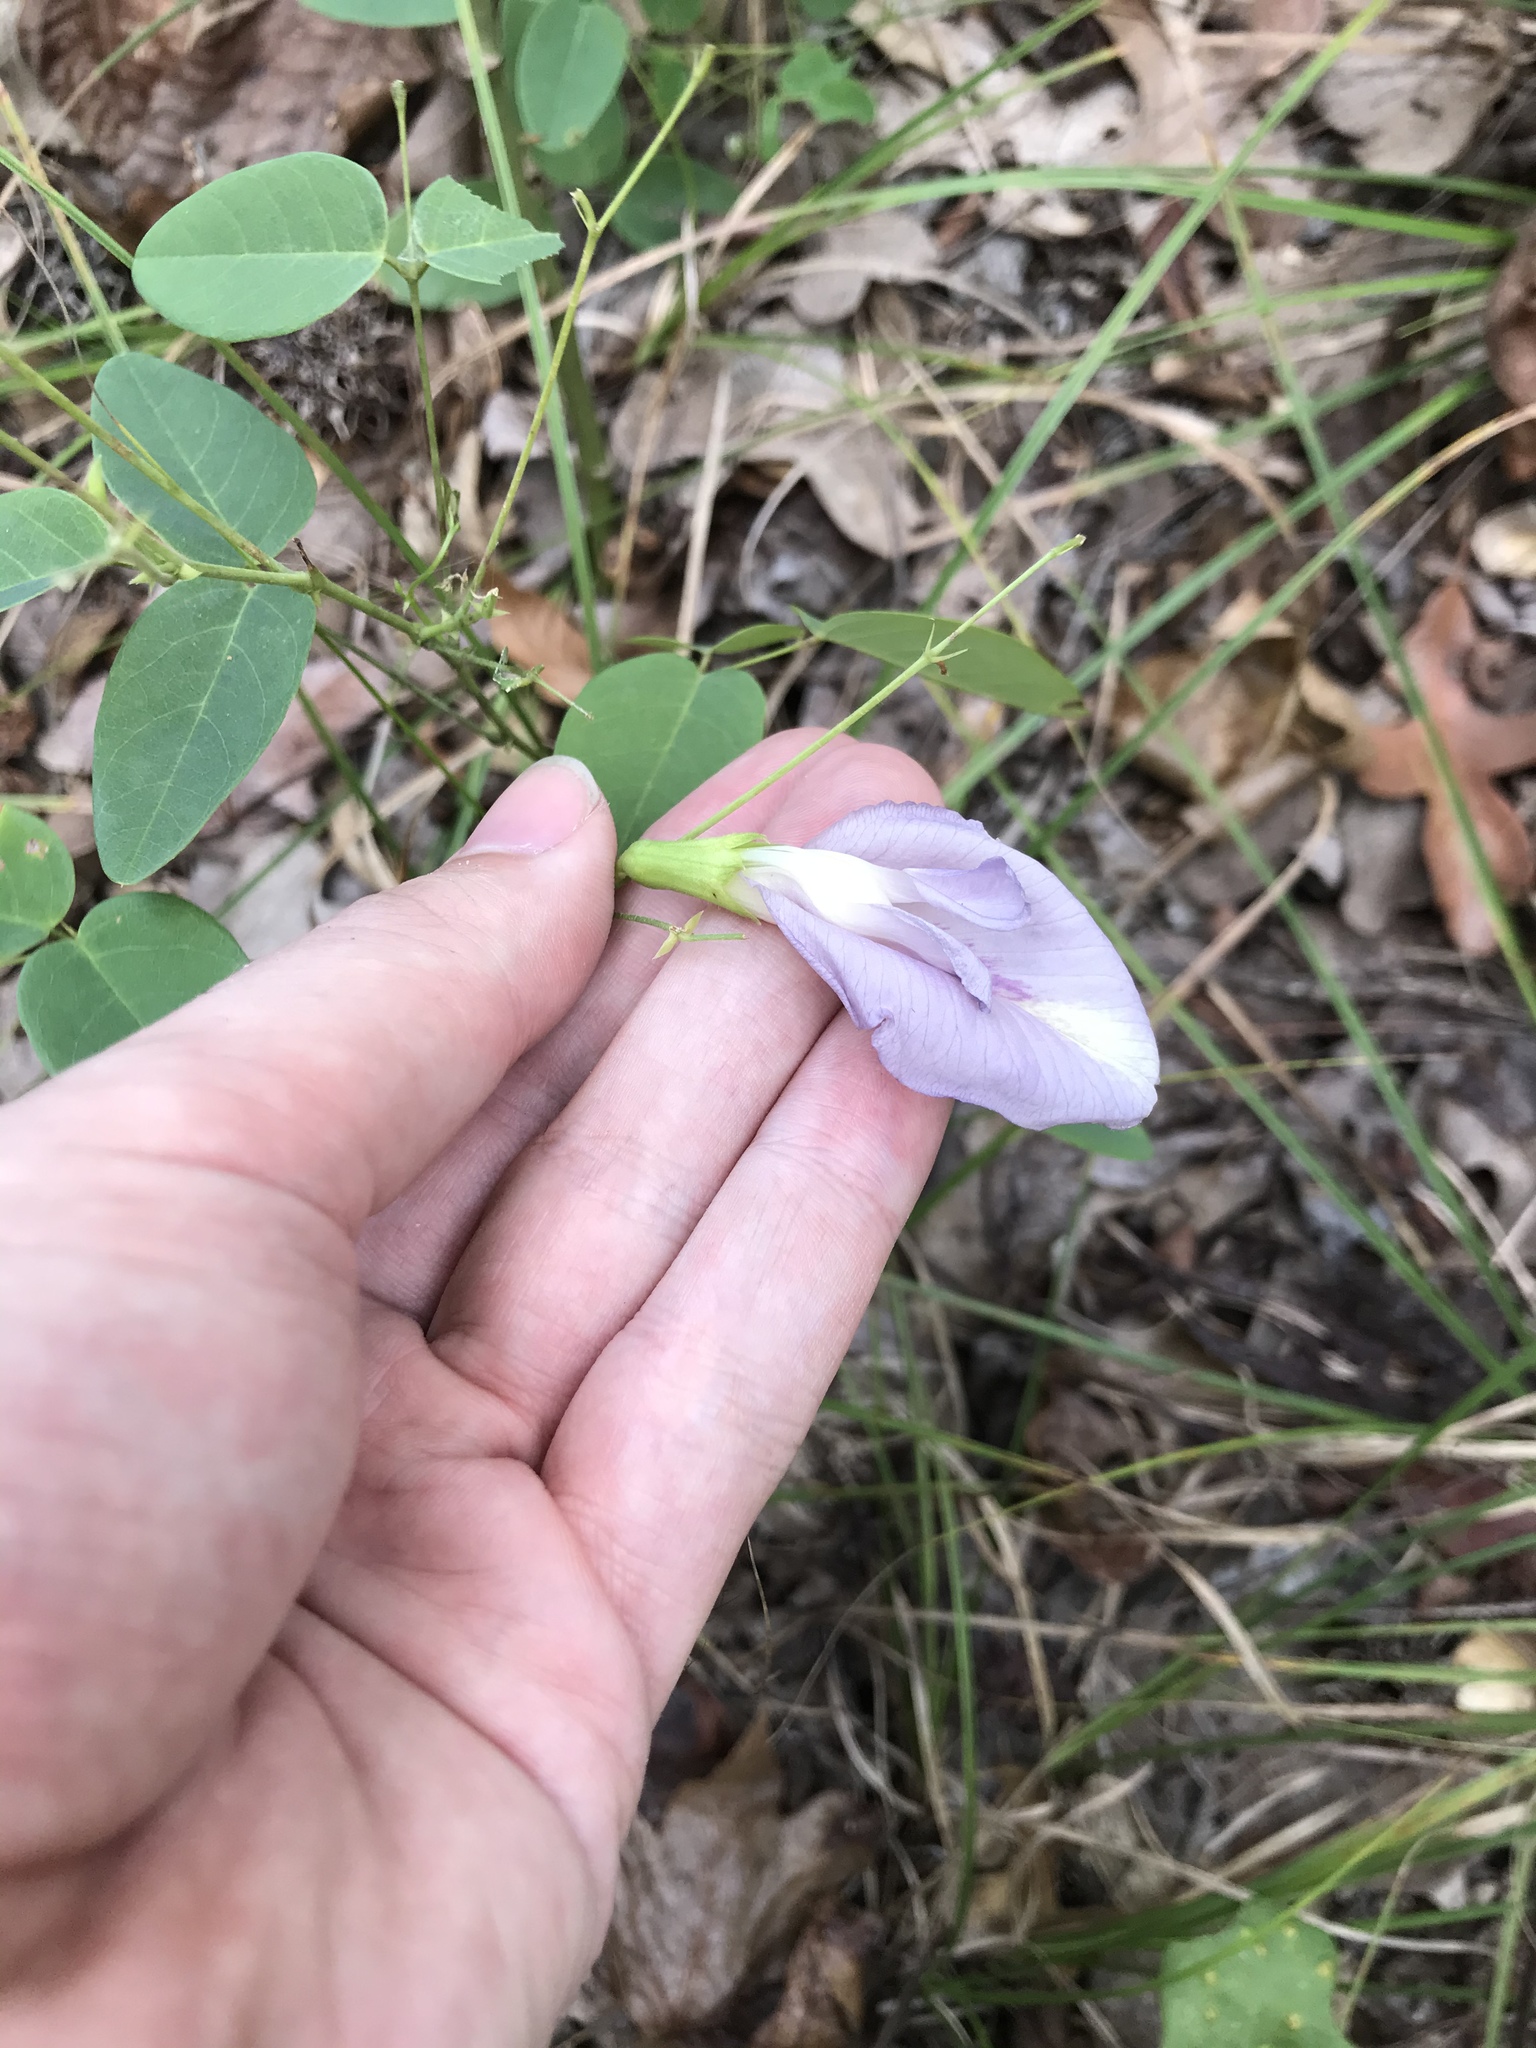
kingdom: Plantae
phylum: Tracheophyta
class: Magnoliopsida
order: Fabales
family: Fabaceae
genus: Clitoria
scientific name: Clitoria mariana
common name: Butterfly-pea
